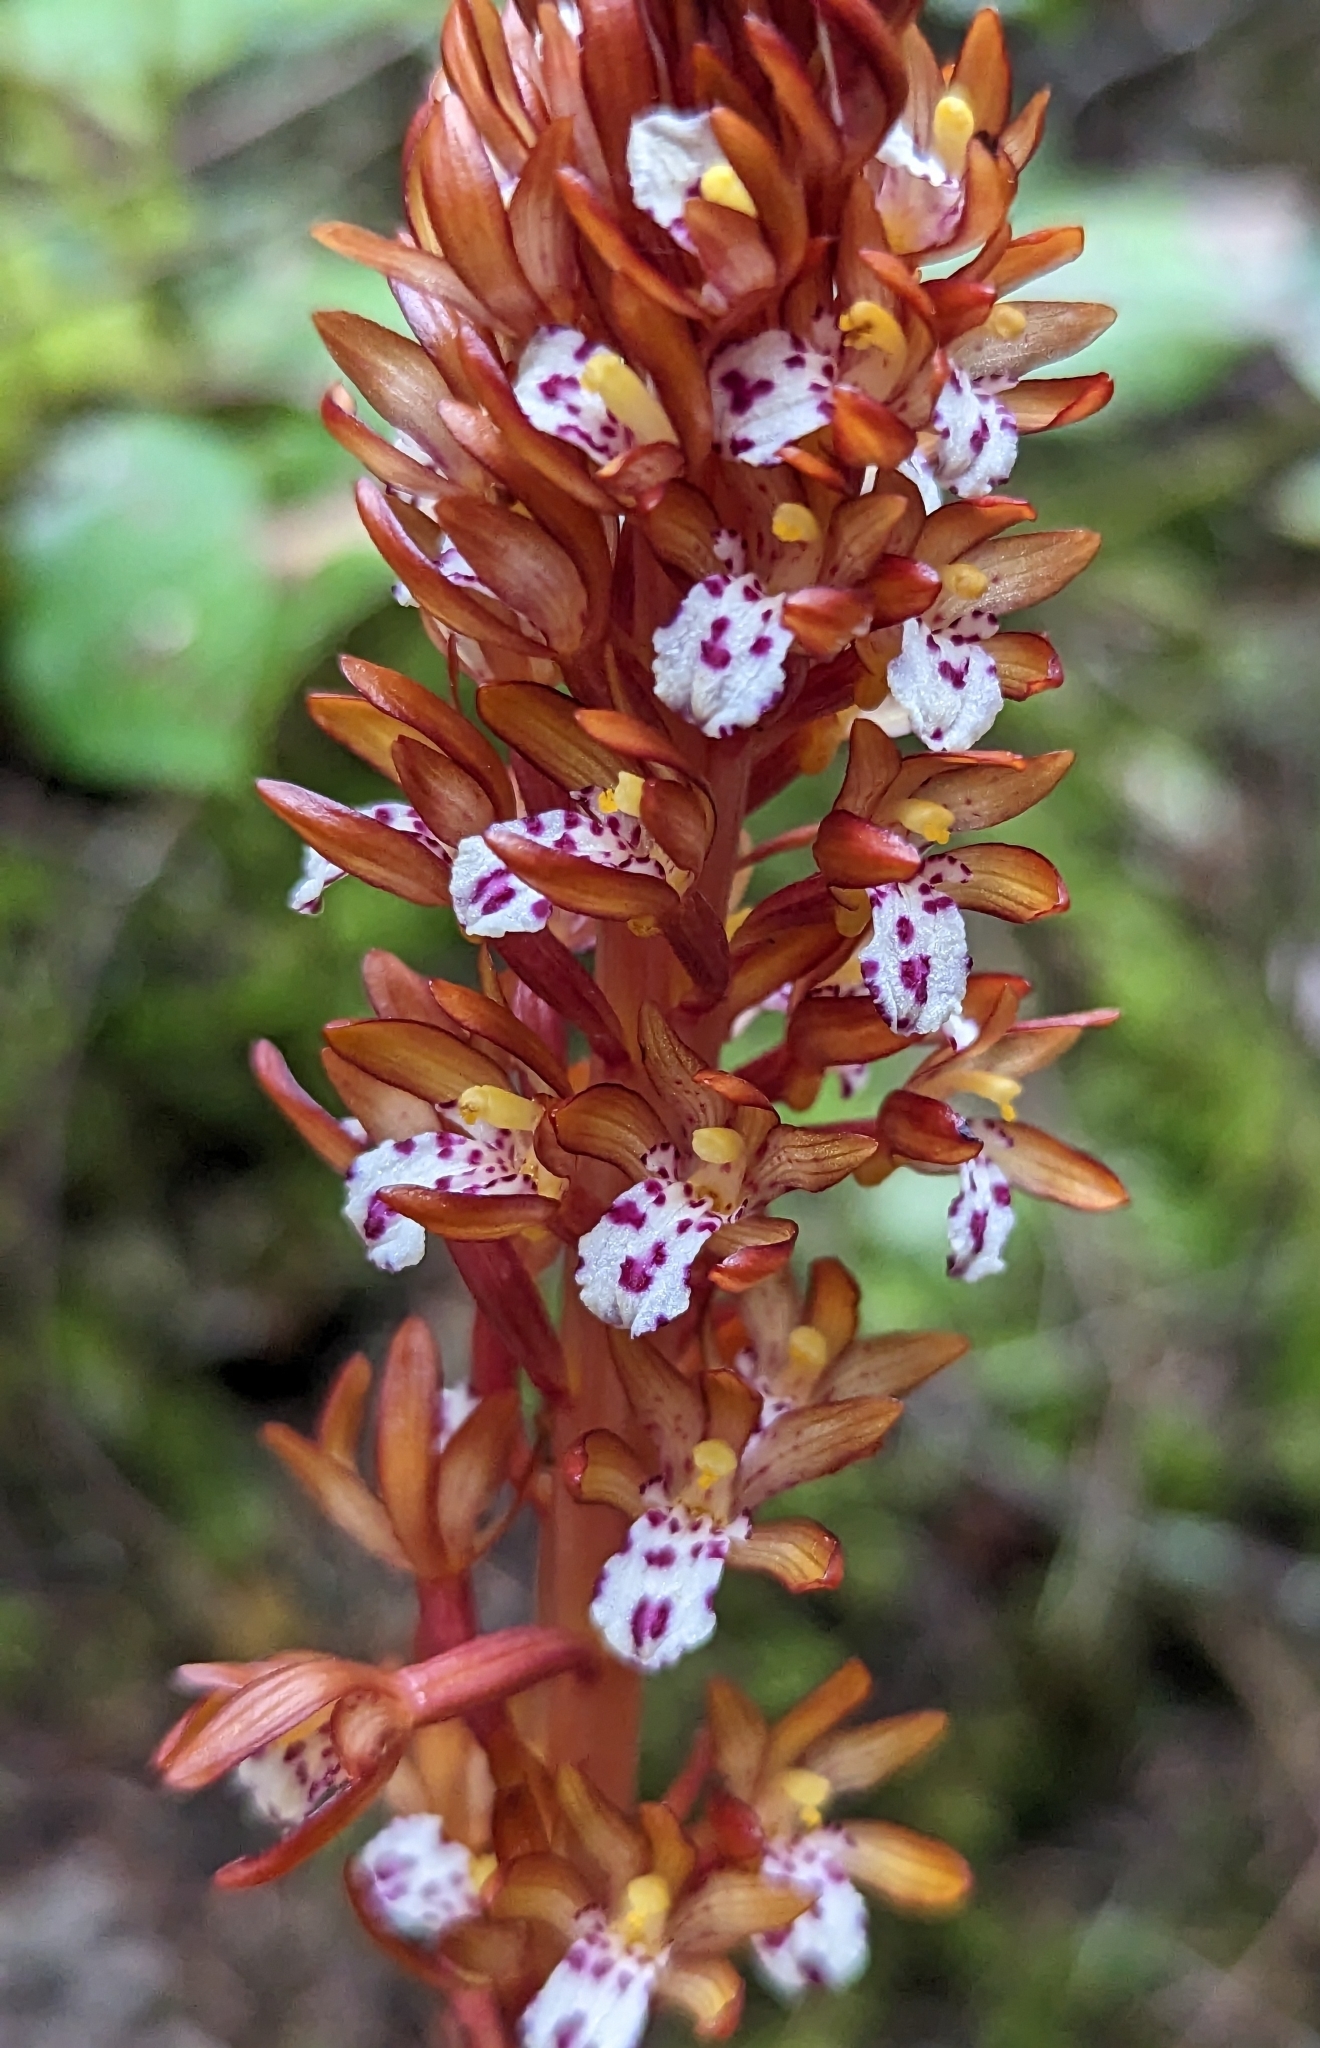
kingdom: Plantae
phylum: Tracheophyta
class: Liliopsida
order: Asparagales
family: Orchidaceae
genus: Corallorhiza
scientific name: Corallorhiza maculata
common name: Spotted coralroot
